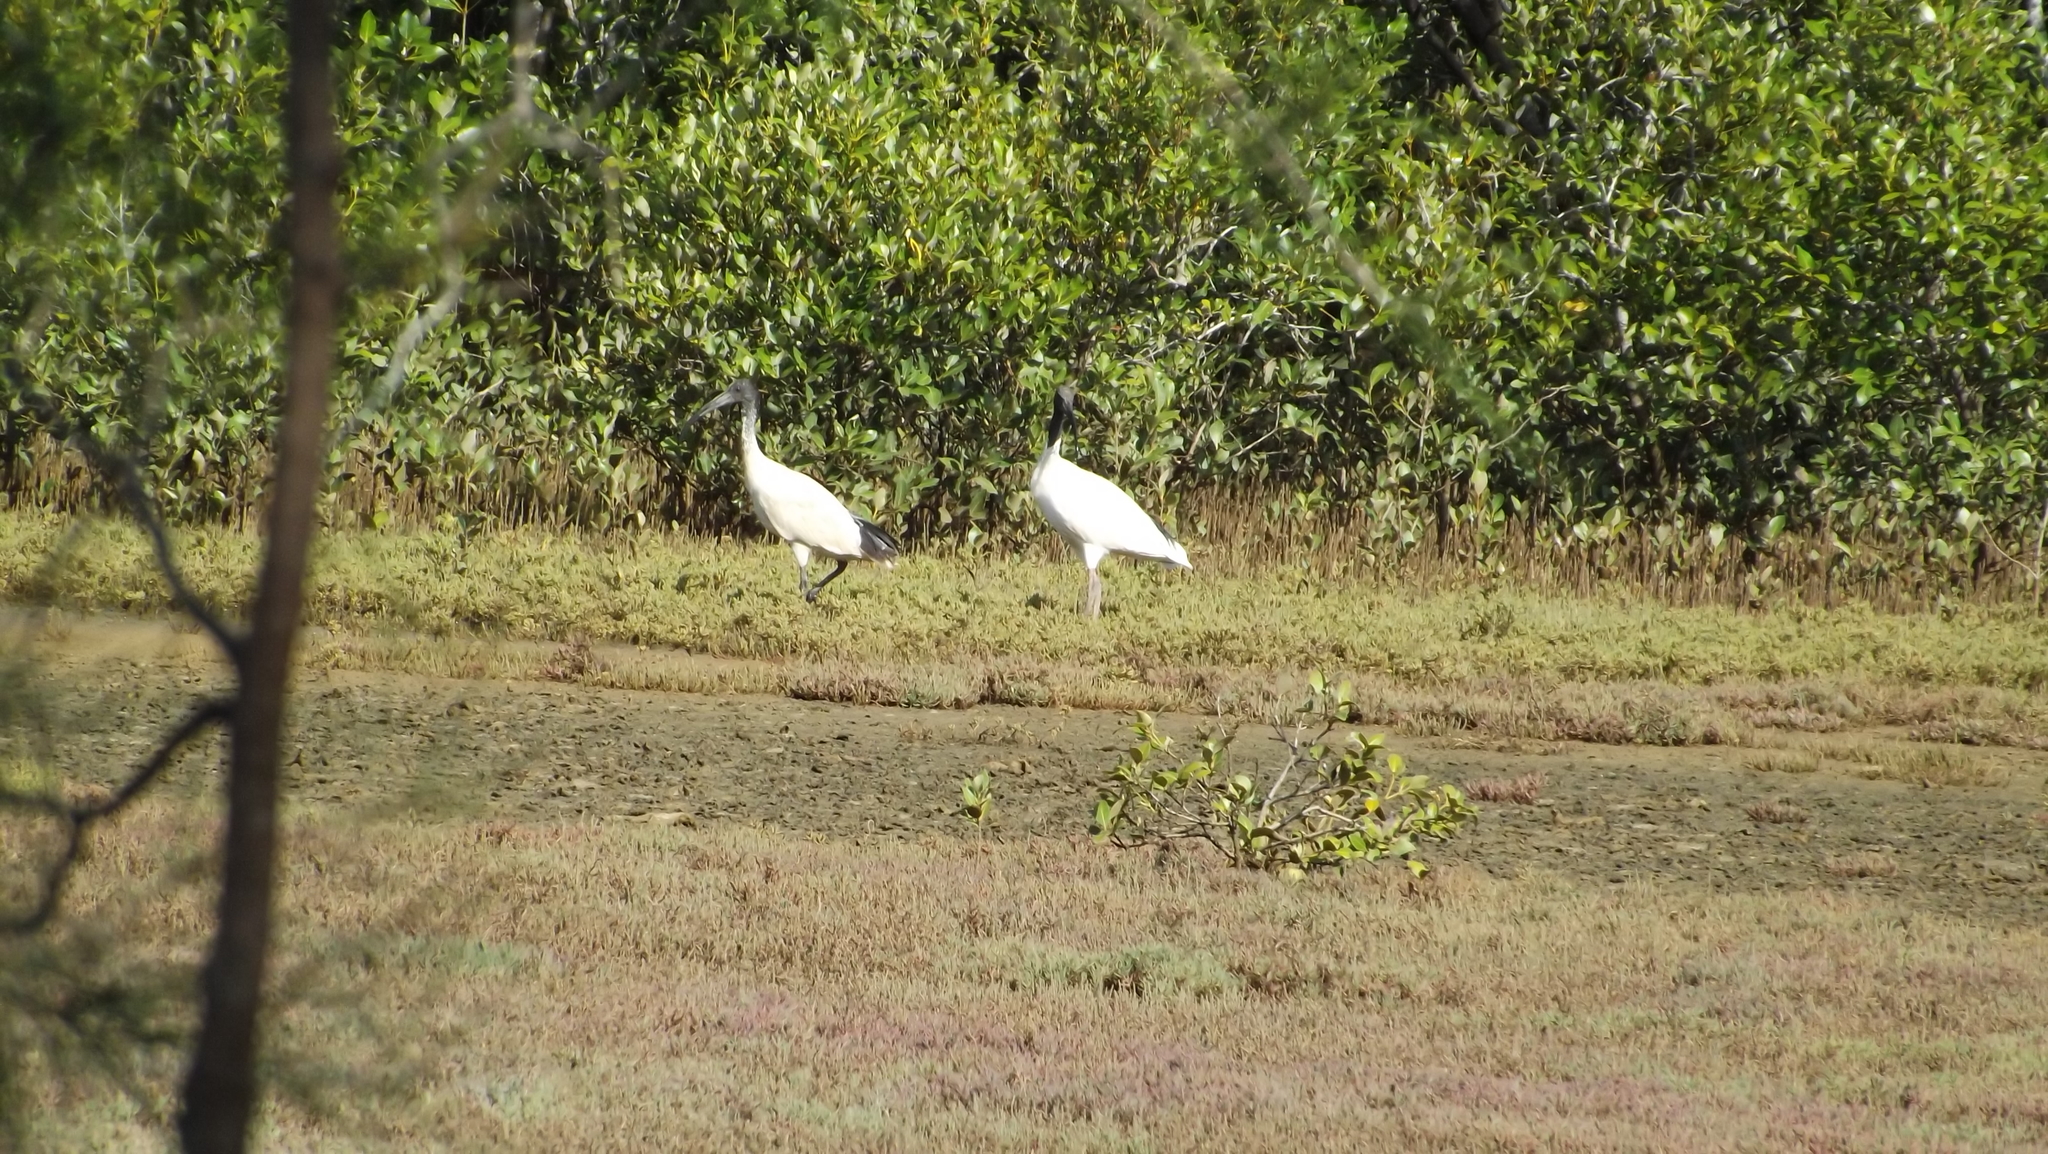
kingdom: Animalia
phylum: Chordata
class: Aves
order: Pelecaniformes
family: Threskiornithidae
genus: Threskiornis
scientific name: Threskiornis molucca
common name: Australian white ibis
